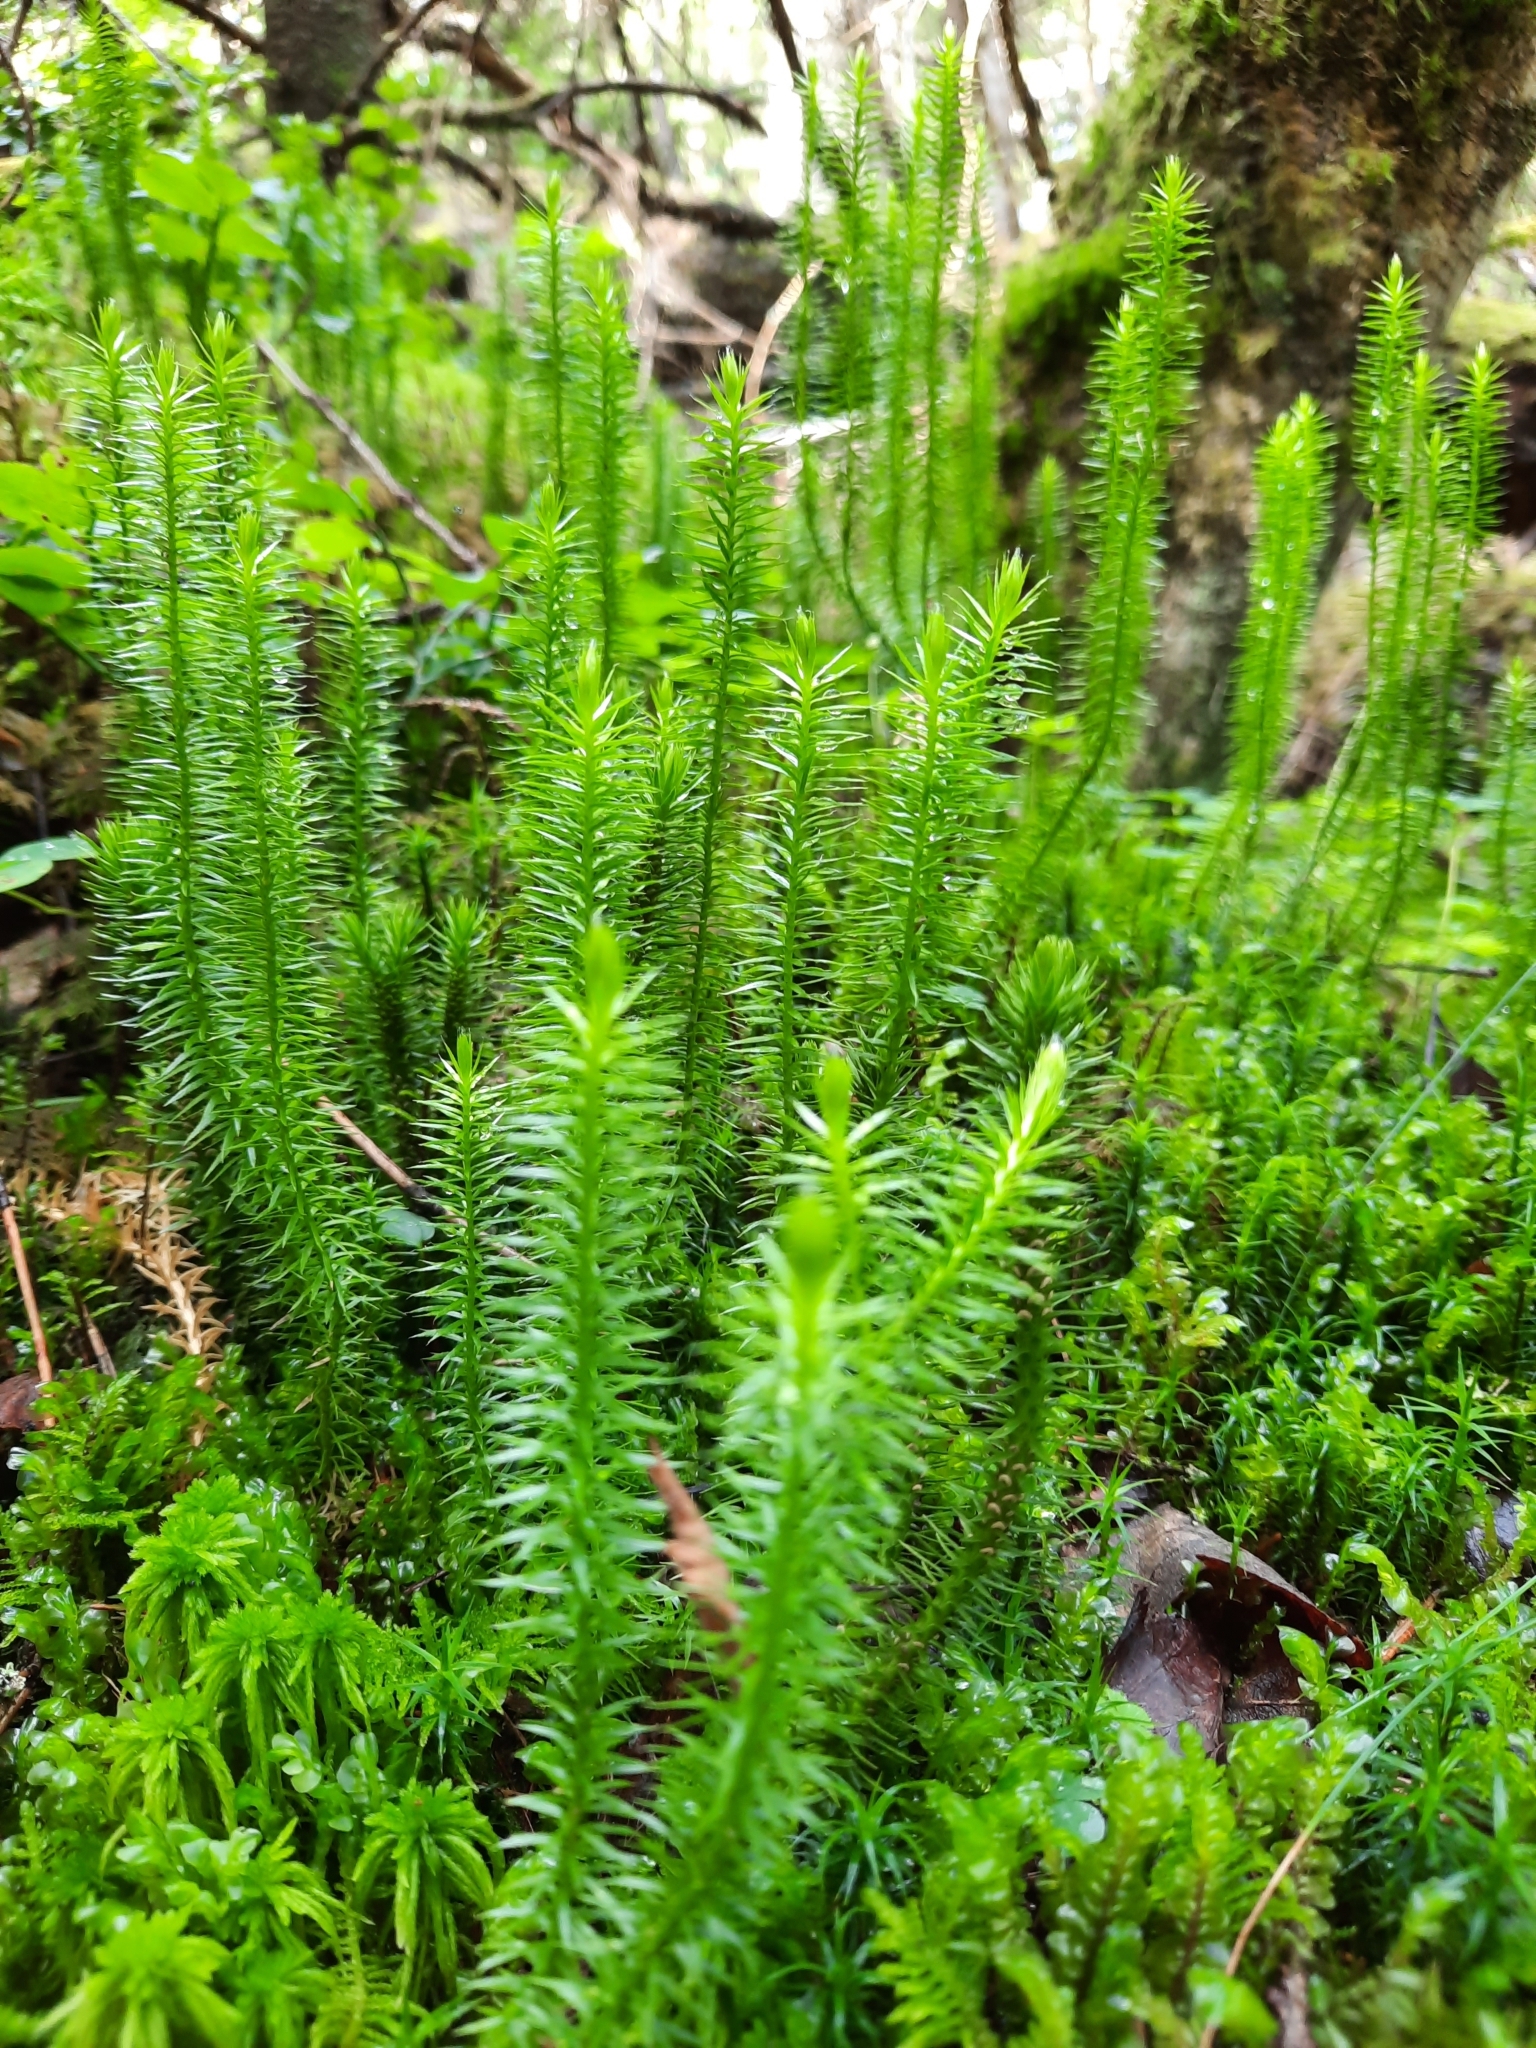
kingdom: Plantae
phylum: Tracheophyta
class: Lycopodiopsida
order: Lycopodiales
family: Lycopodiaceae
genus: Spinulum
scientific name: Spinulum annotinum
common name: Interrupted club-moss
